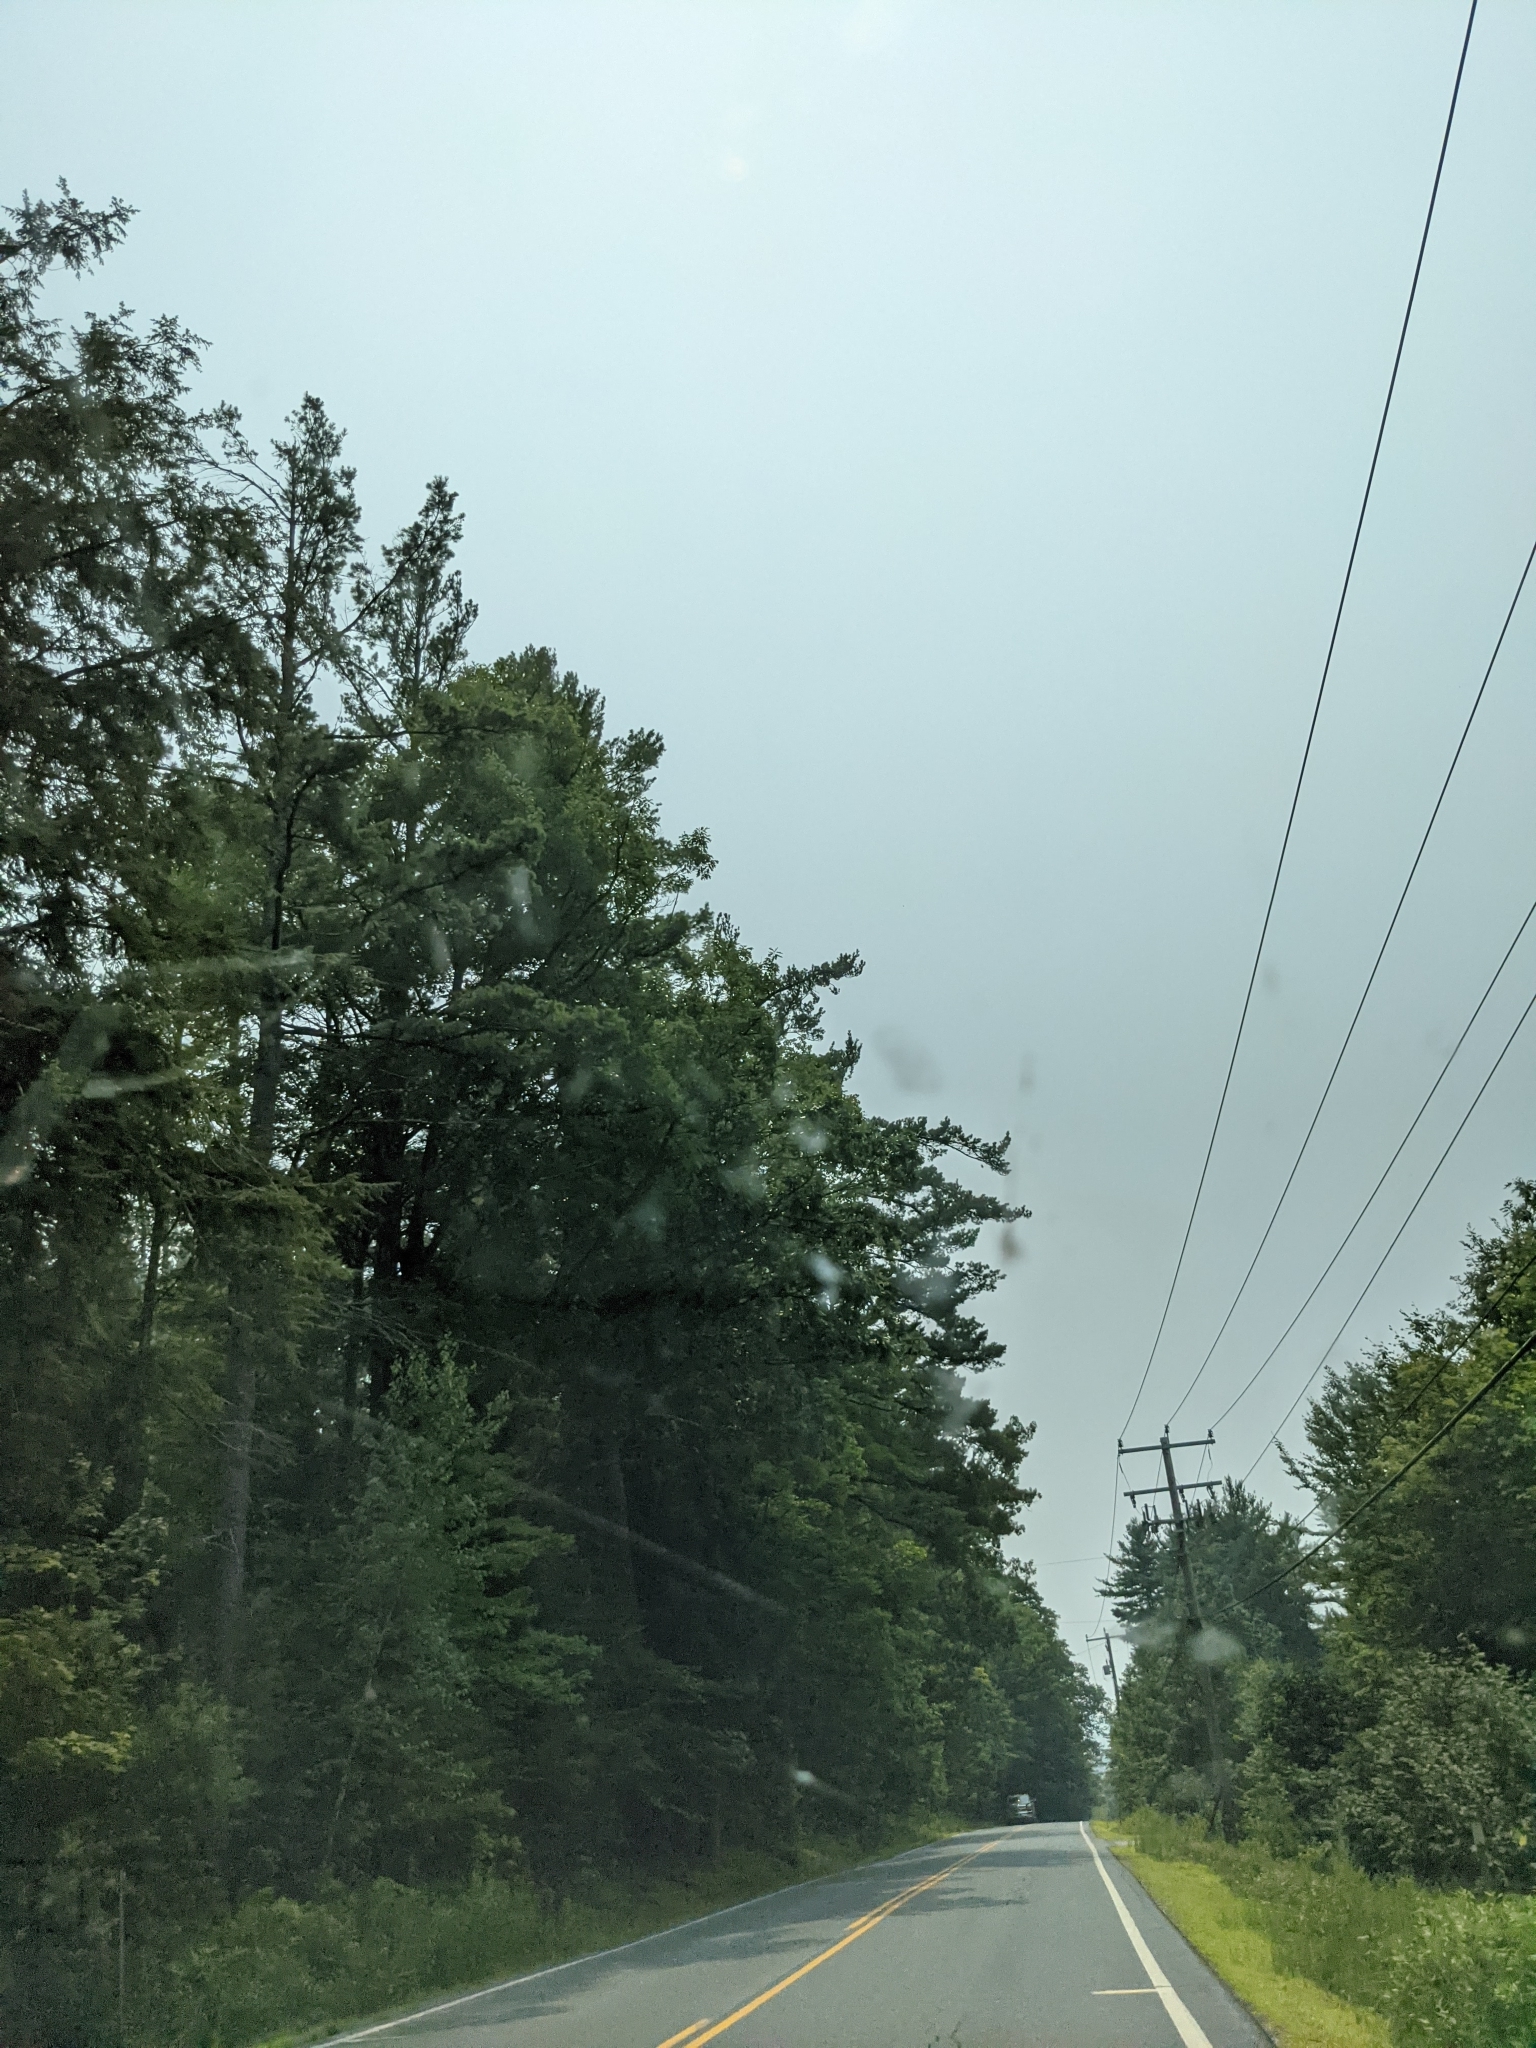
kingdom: Plantae
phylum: Tracheophyta
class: Pinopsida
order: Pinales
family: Pinaceae
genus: Pinus
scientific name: Pinus strobus
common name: Weymouth pine
